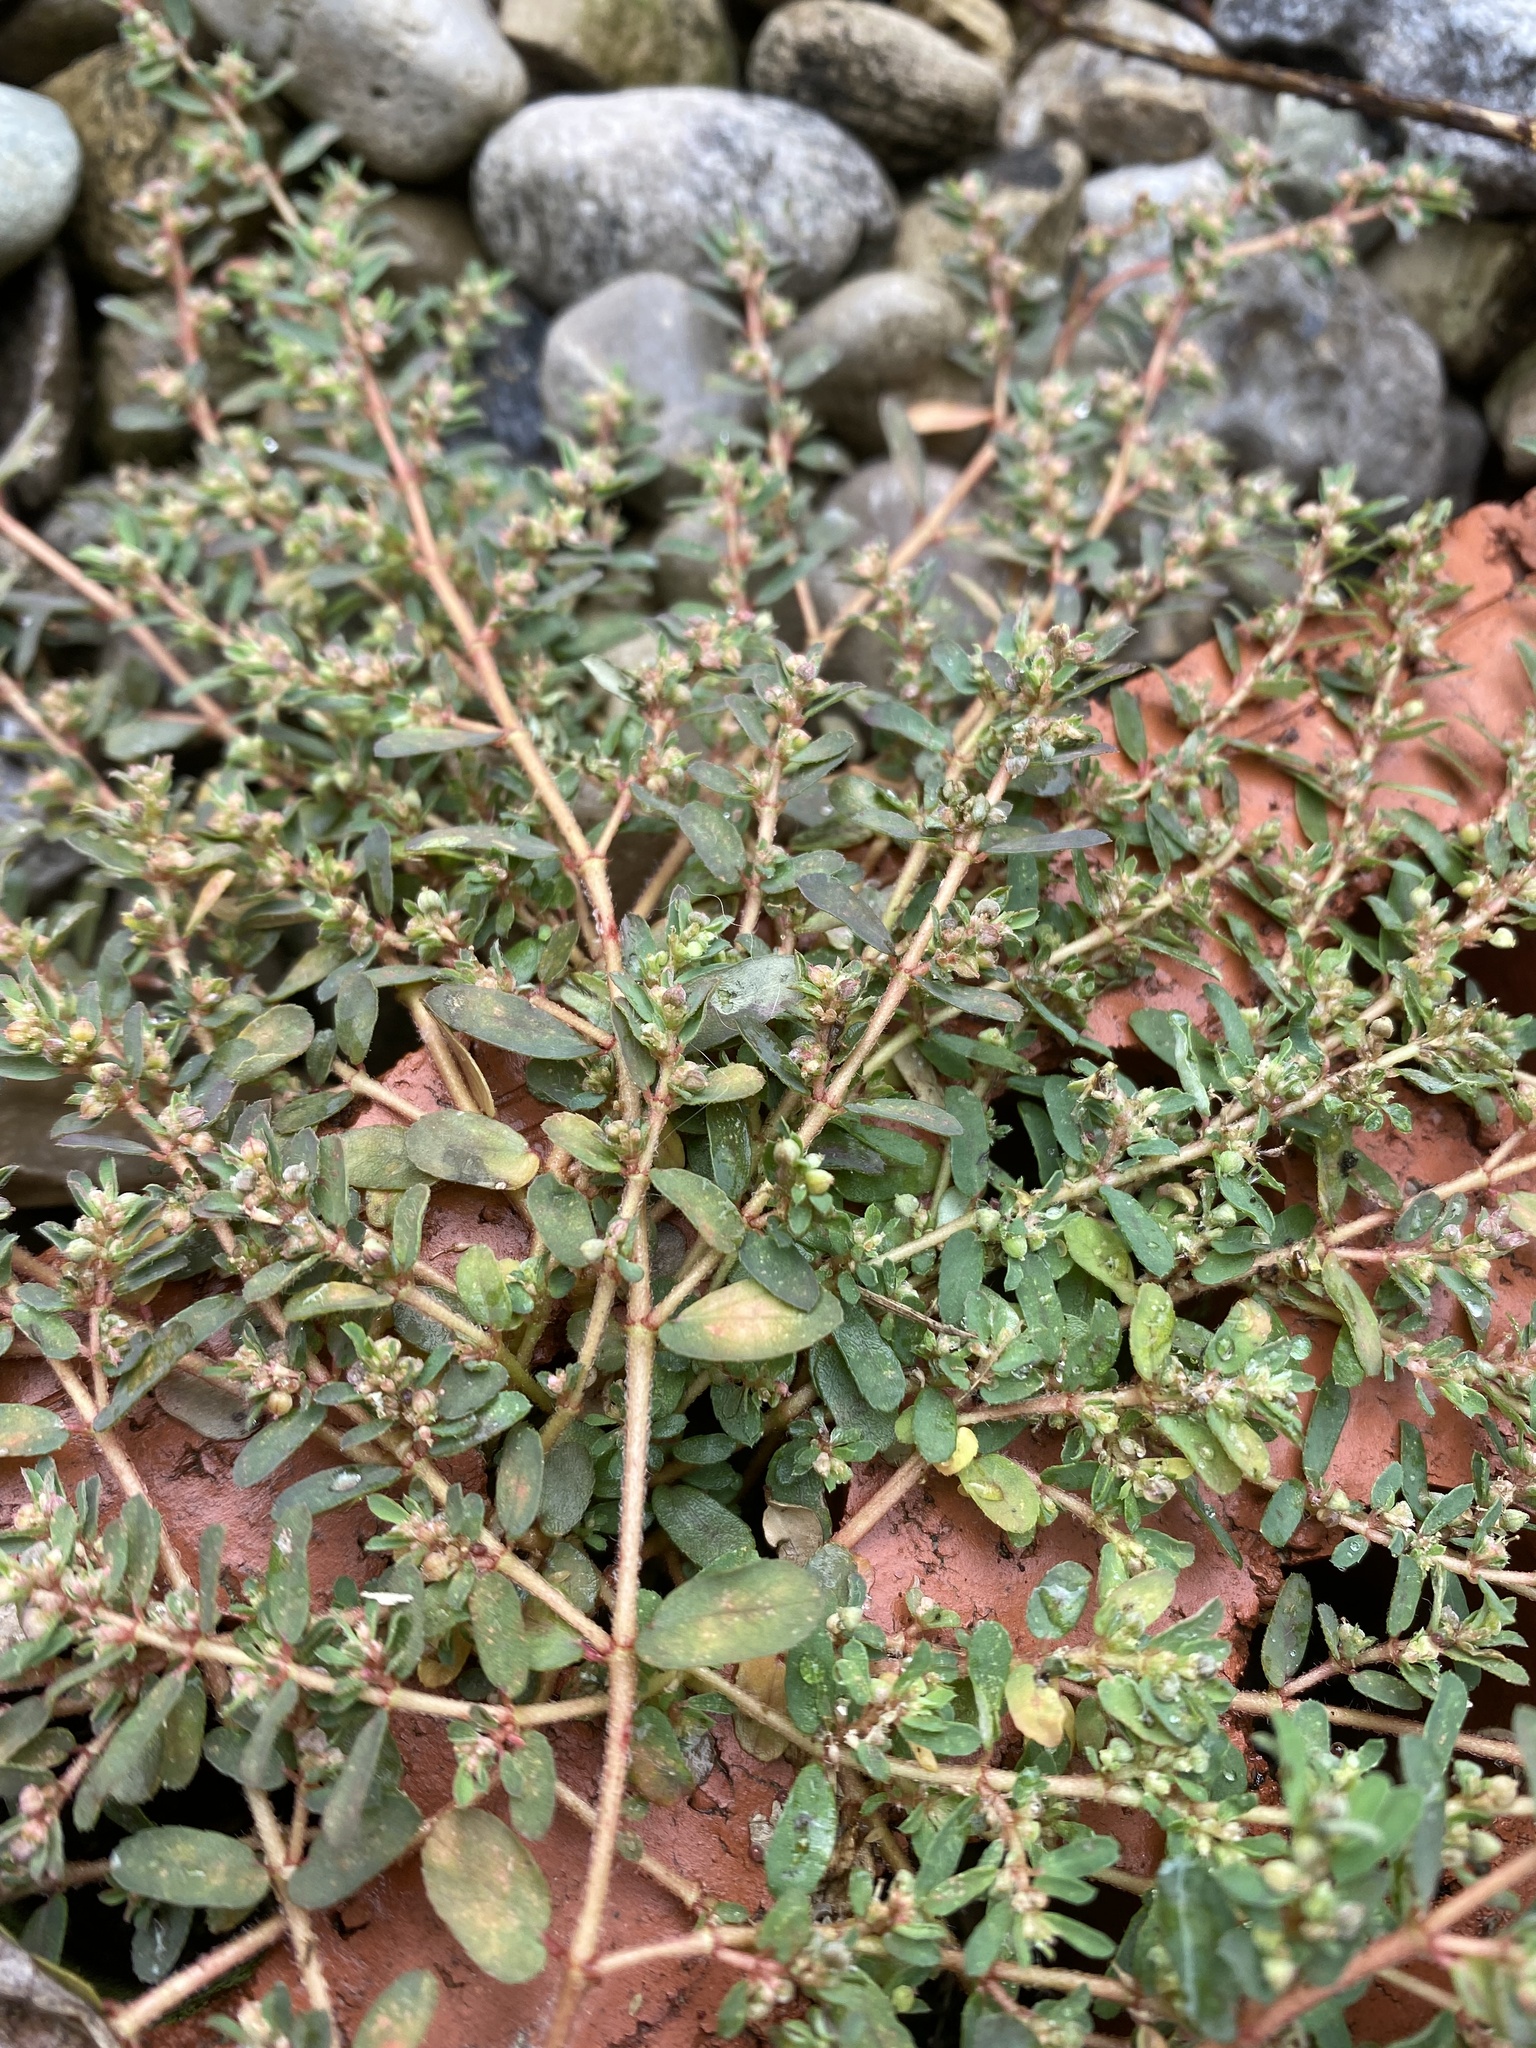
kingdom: Plantae
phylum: Tracheophyta
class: Magnoliopsida
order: Malpighiales
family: Euphorbiaceae
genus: Euphorbia
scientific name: Euphorbia maculata
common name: Spotted spurge
